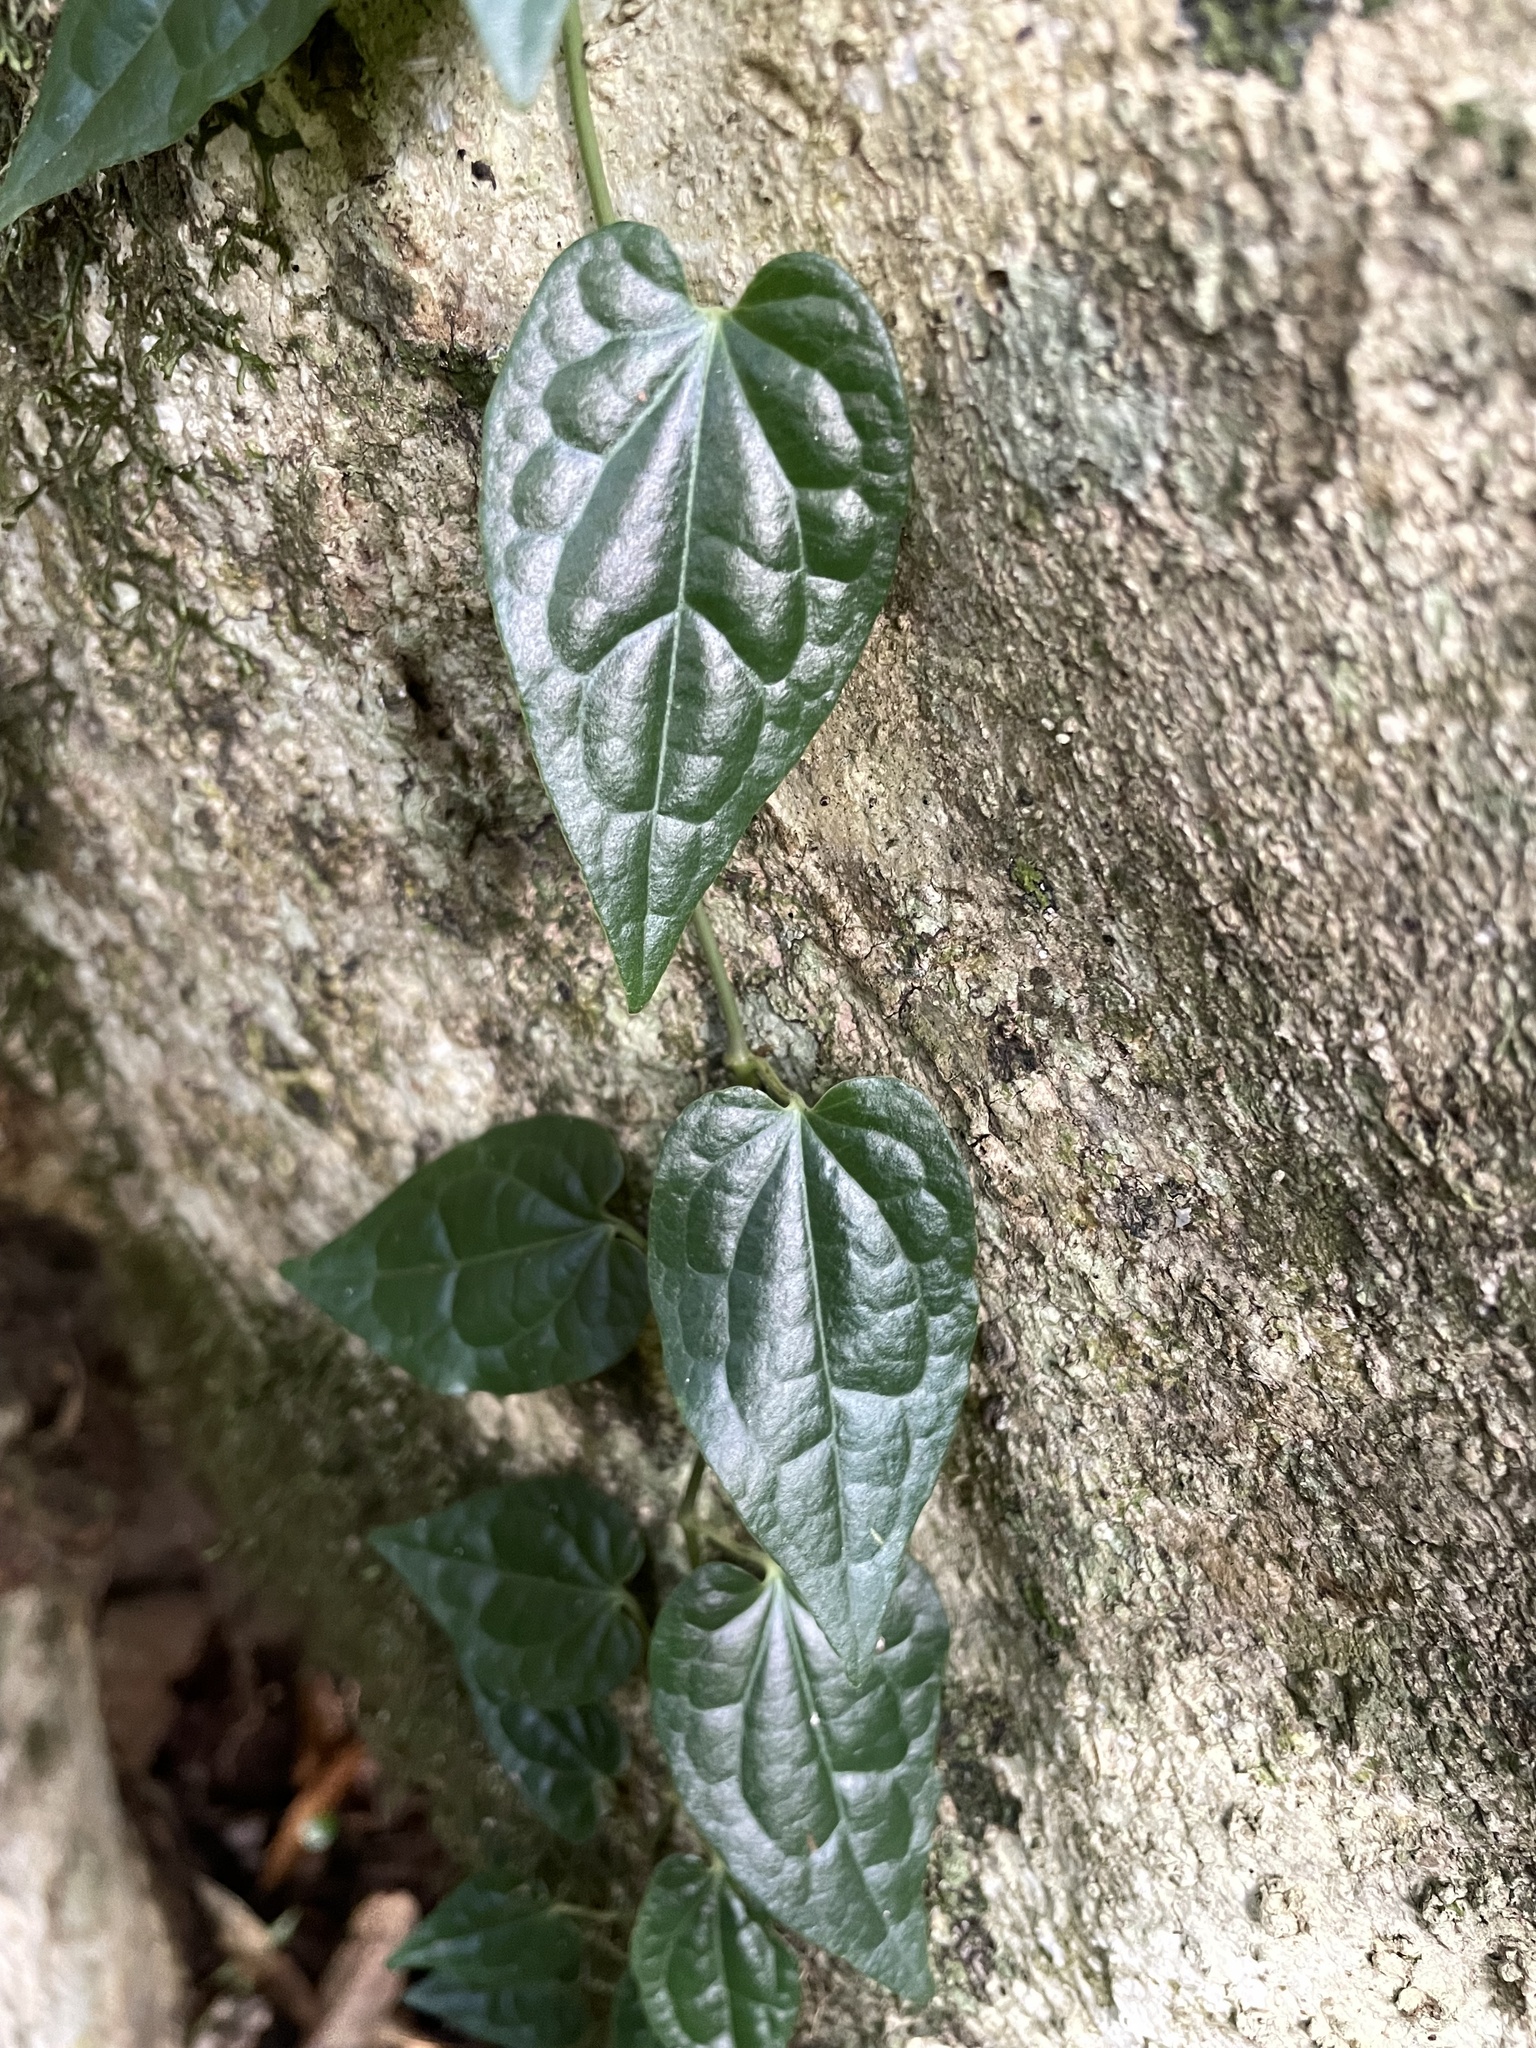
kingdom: Plantae
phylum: Tracheophyta
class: Magnoliopsida
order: Piperales
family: Piperaceae
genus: Piper
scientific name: Piper hederaceum
